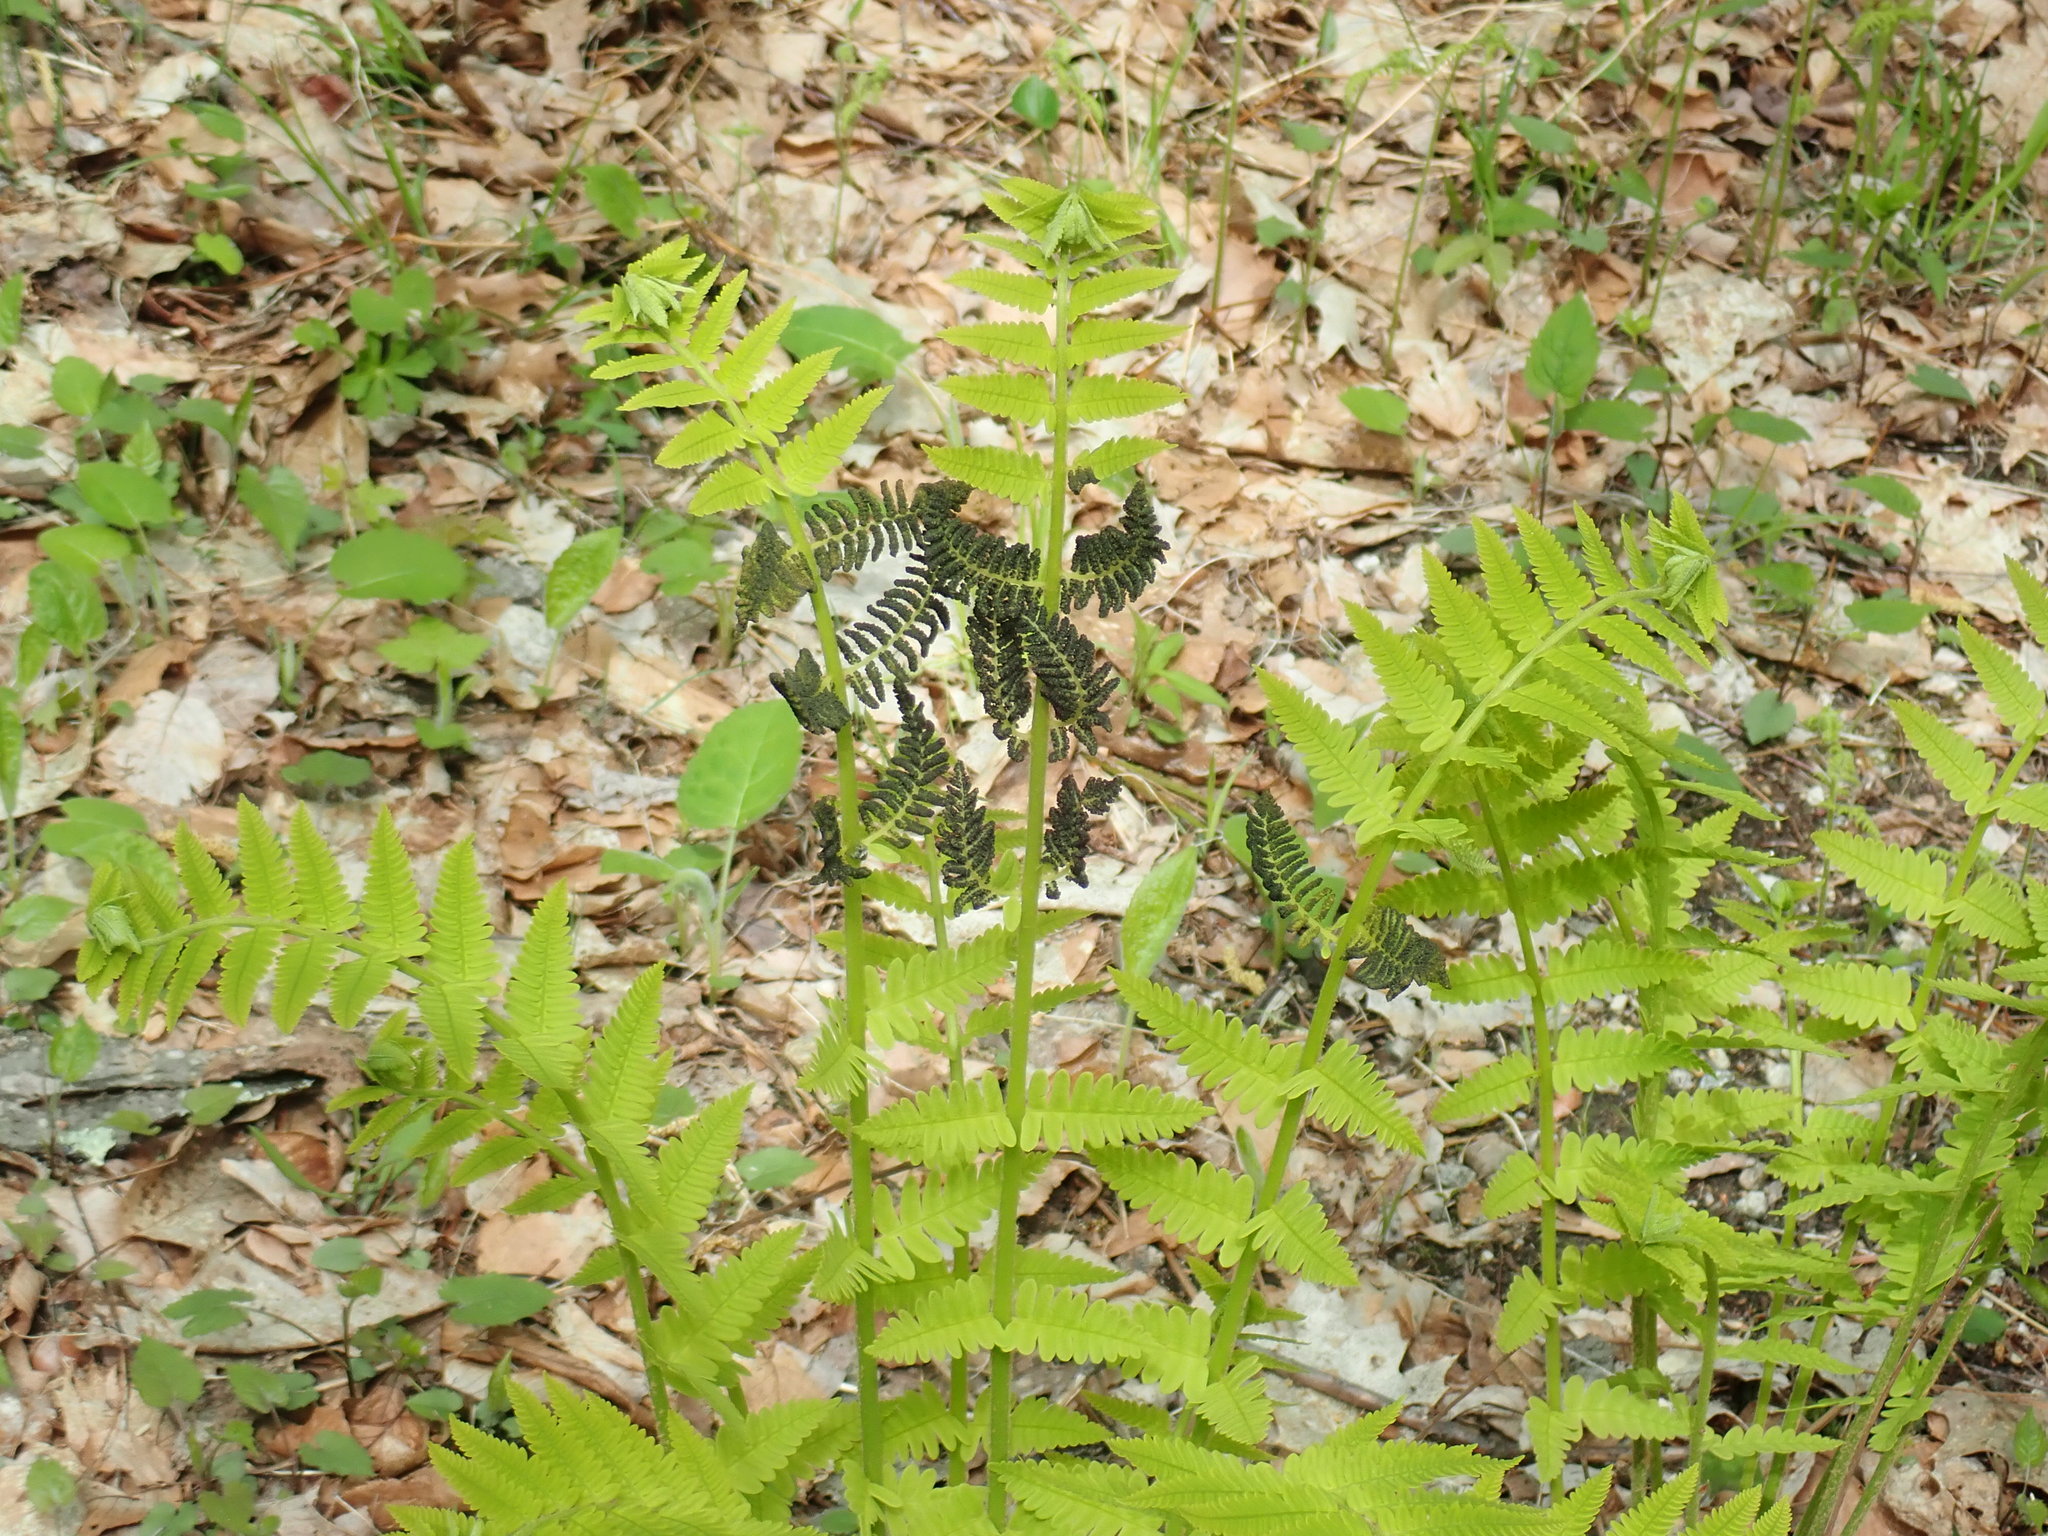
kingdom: Plantae
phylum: Tracheophyta
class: Polypodiopsida
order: Osmundales
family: Osmundaceae
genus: Claytosmunda
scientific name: Claytosmunda claytoniana
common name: Clayton's fern
